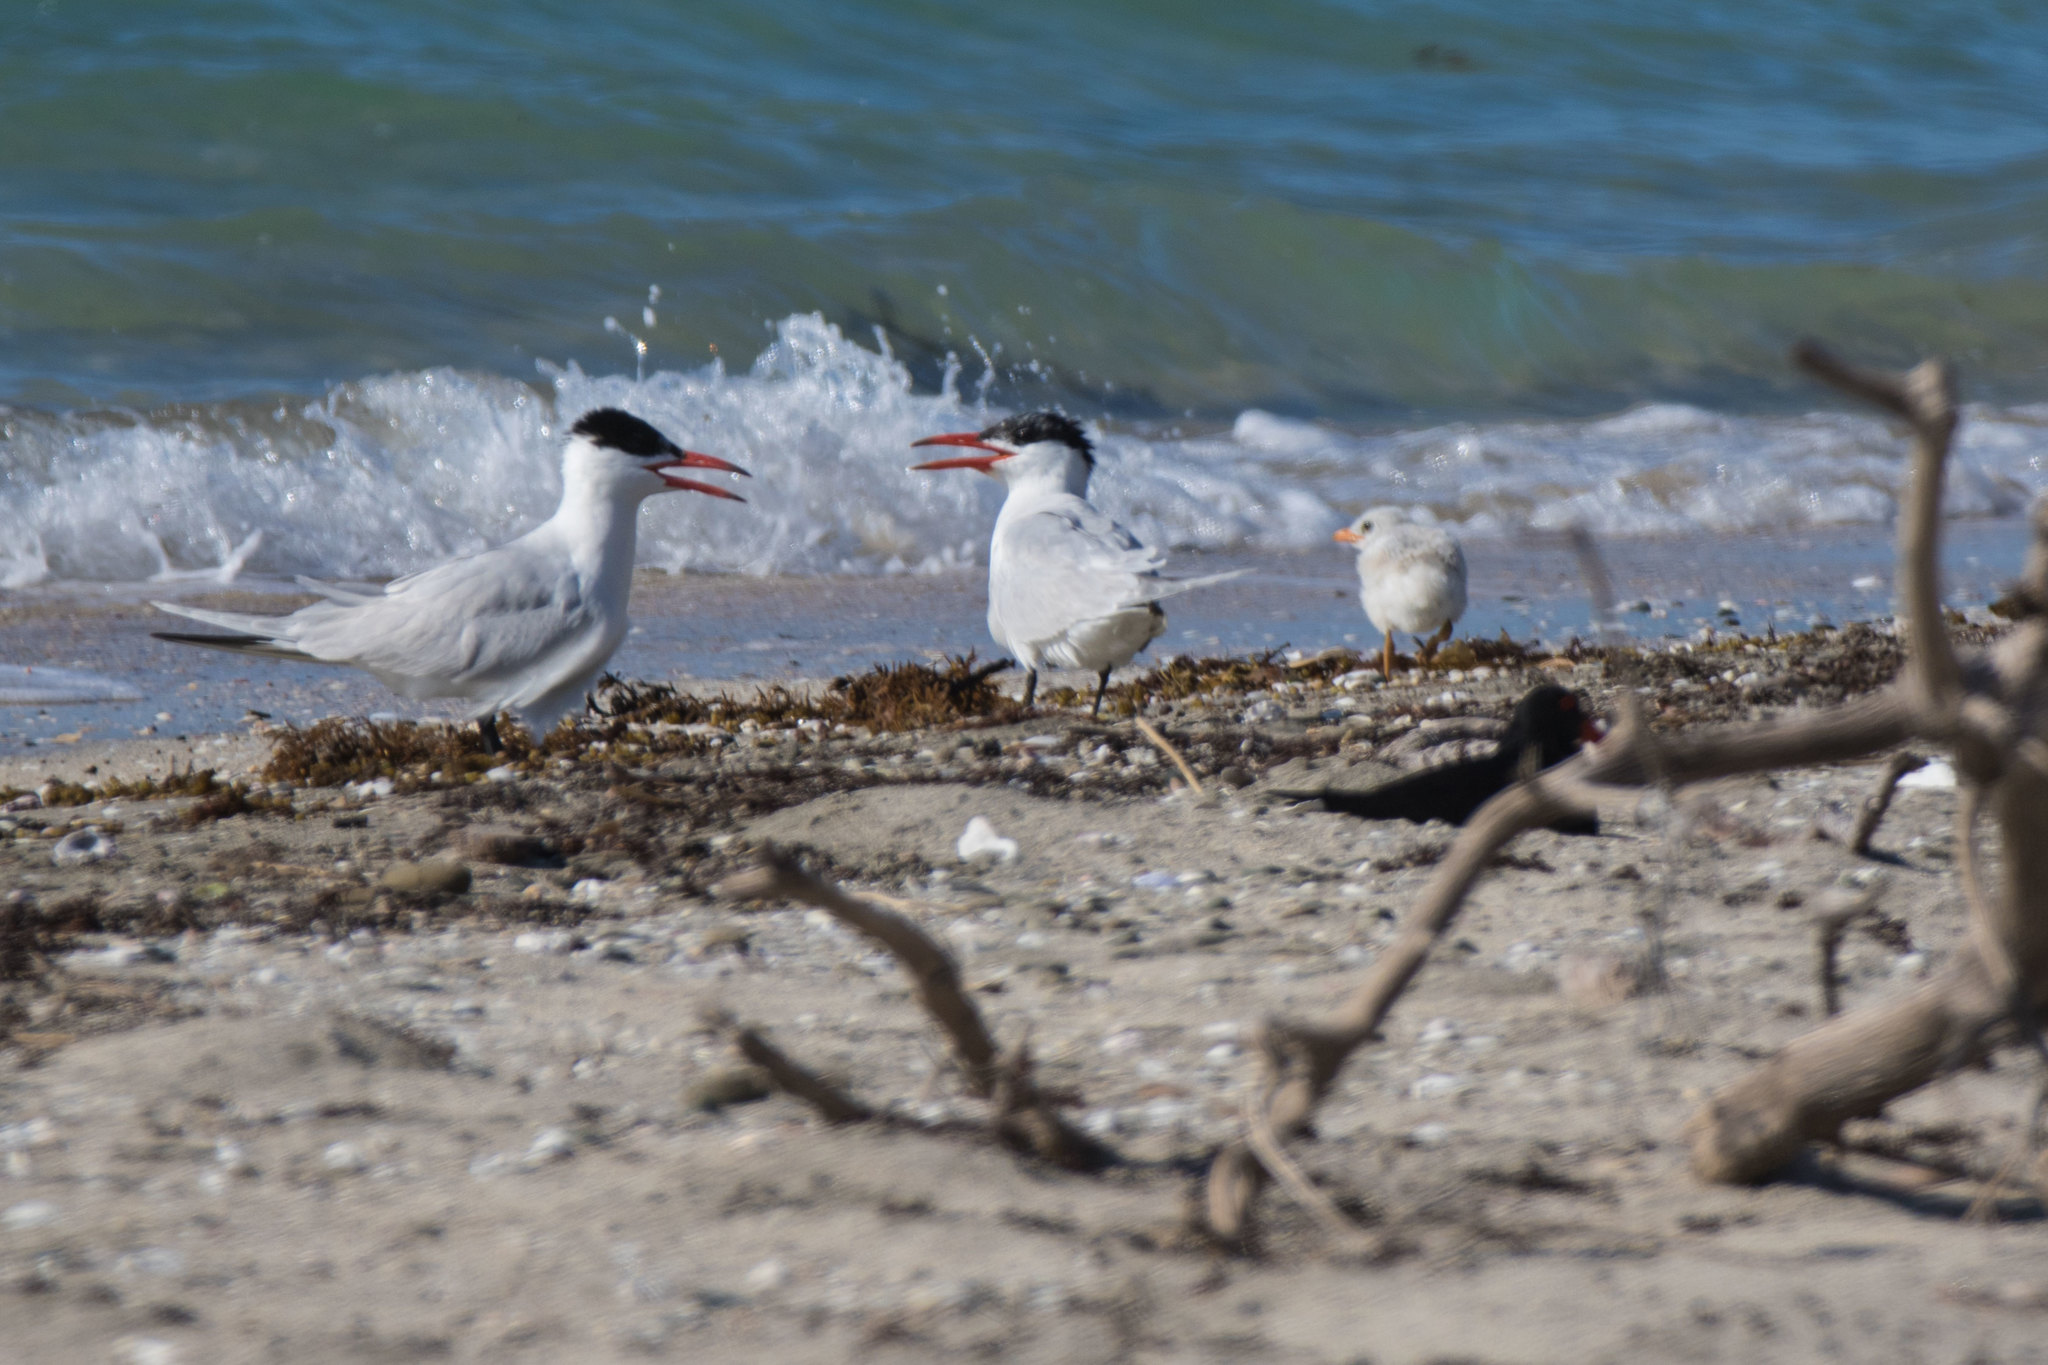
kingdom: Animalia
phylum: Chordata
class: Aves
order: Charadriiformes
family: Laridae
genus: Hydroprogne
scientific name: Hydroprogne caspia
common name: Caspian tern
